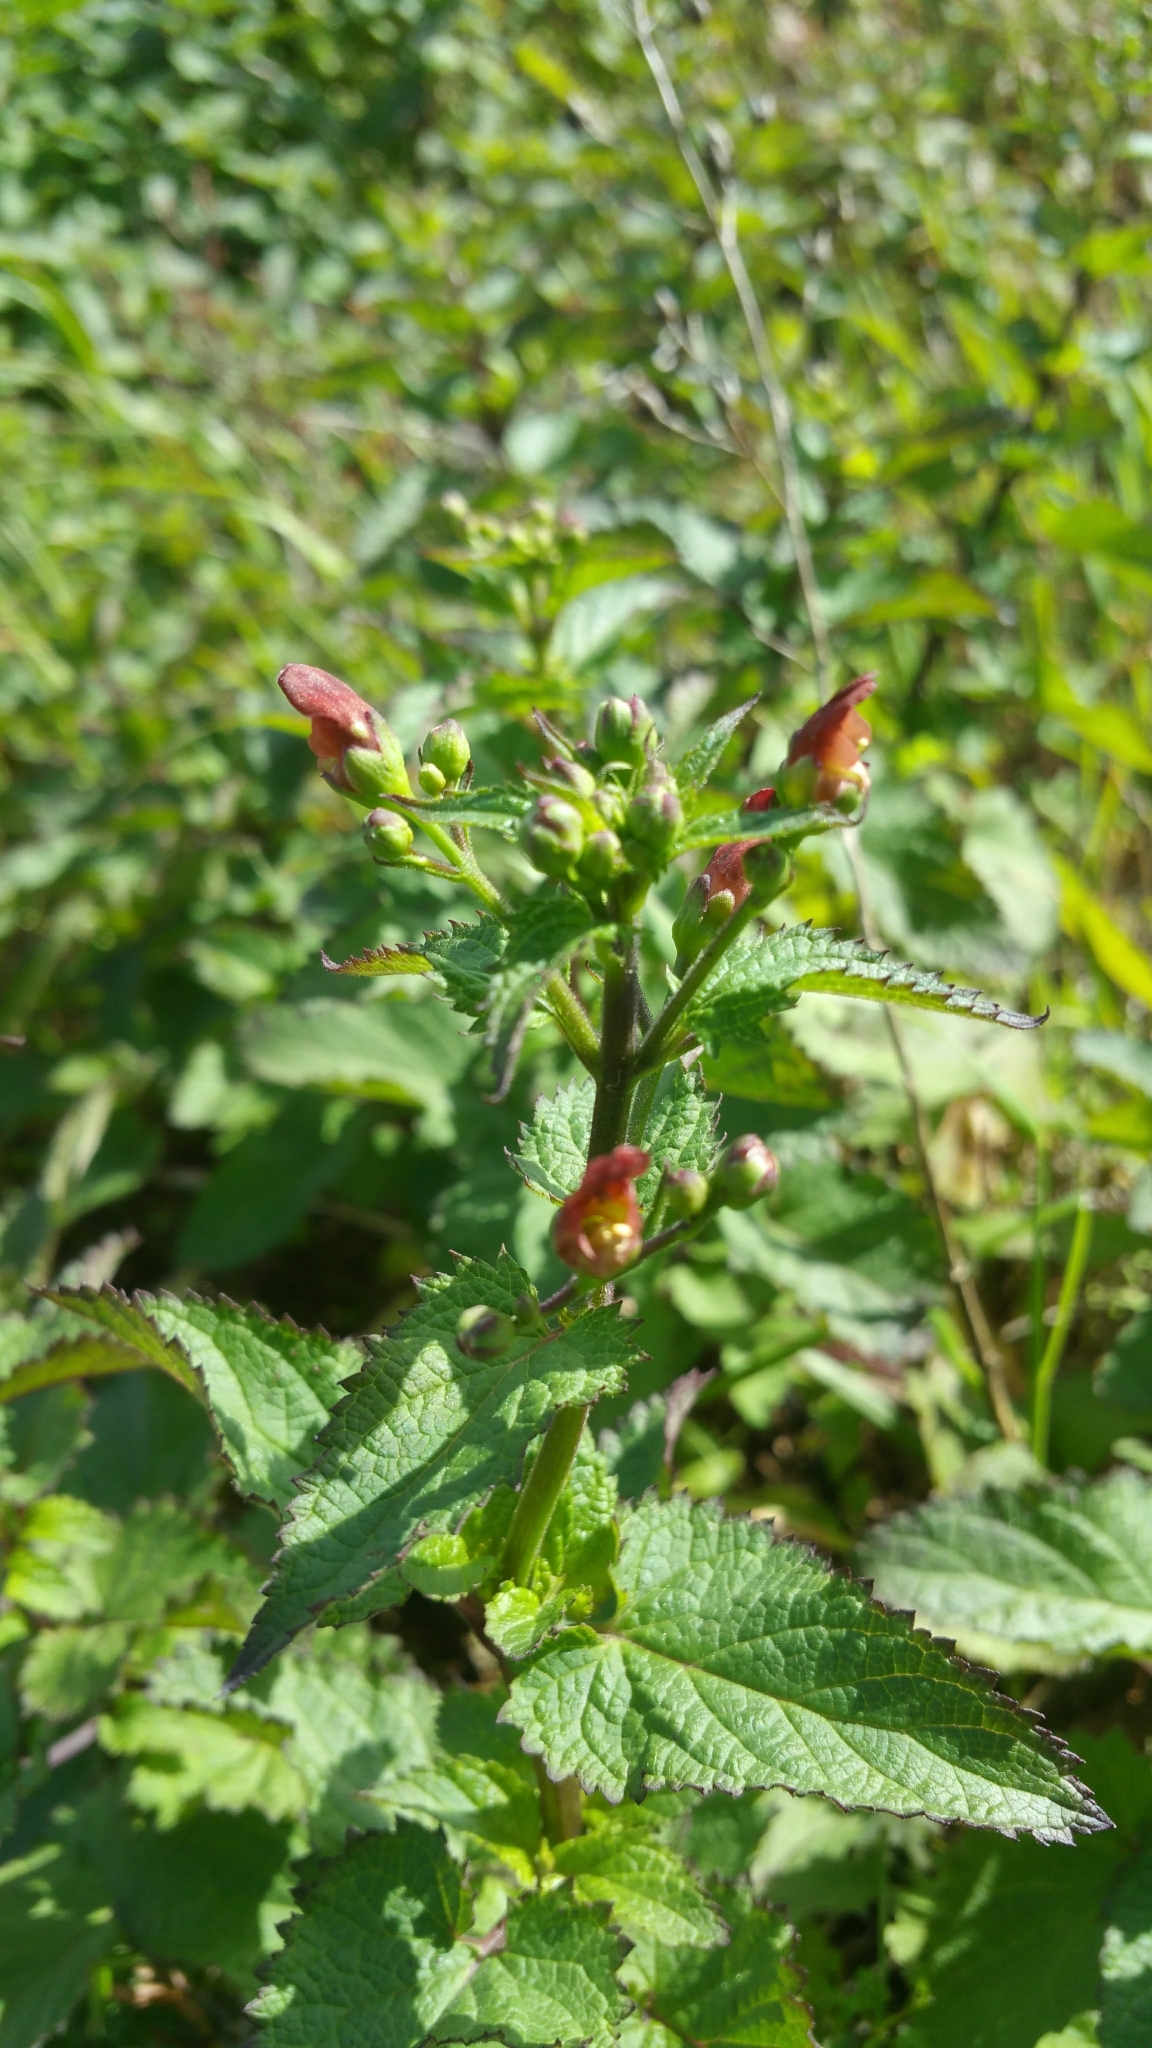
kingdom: Plantae
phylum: Tracheophyta
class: Magnoliopsida
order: Lamiales
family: Scrophulariaceae
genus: Scrophularia
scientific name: Scrophularia californica
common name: California figwort
